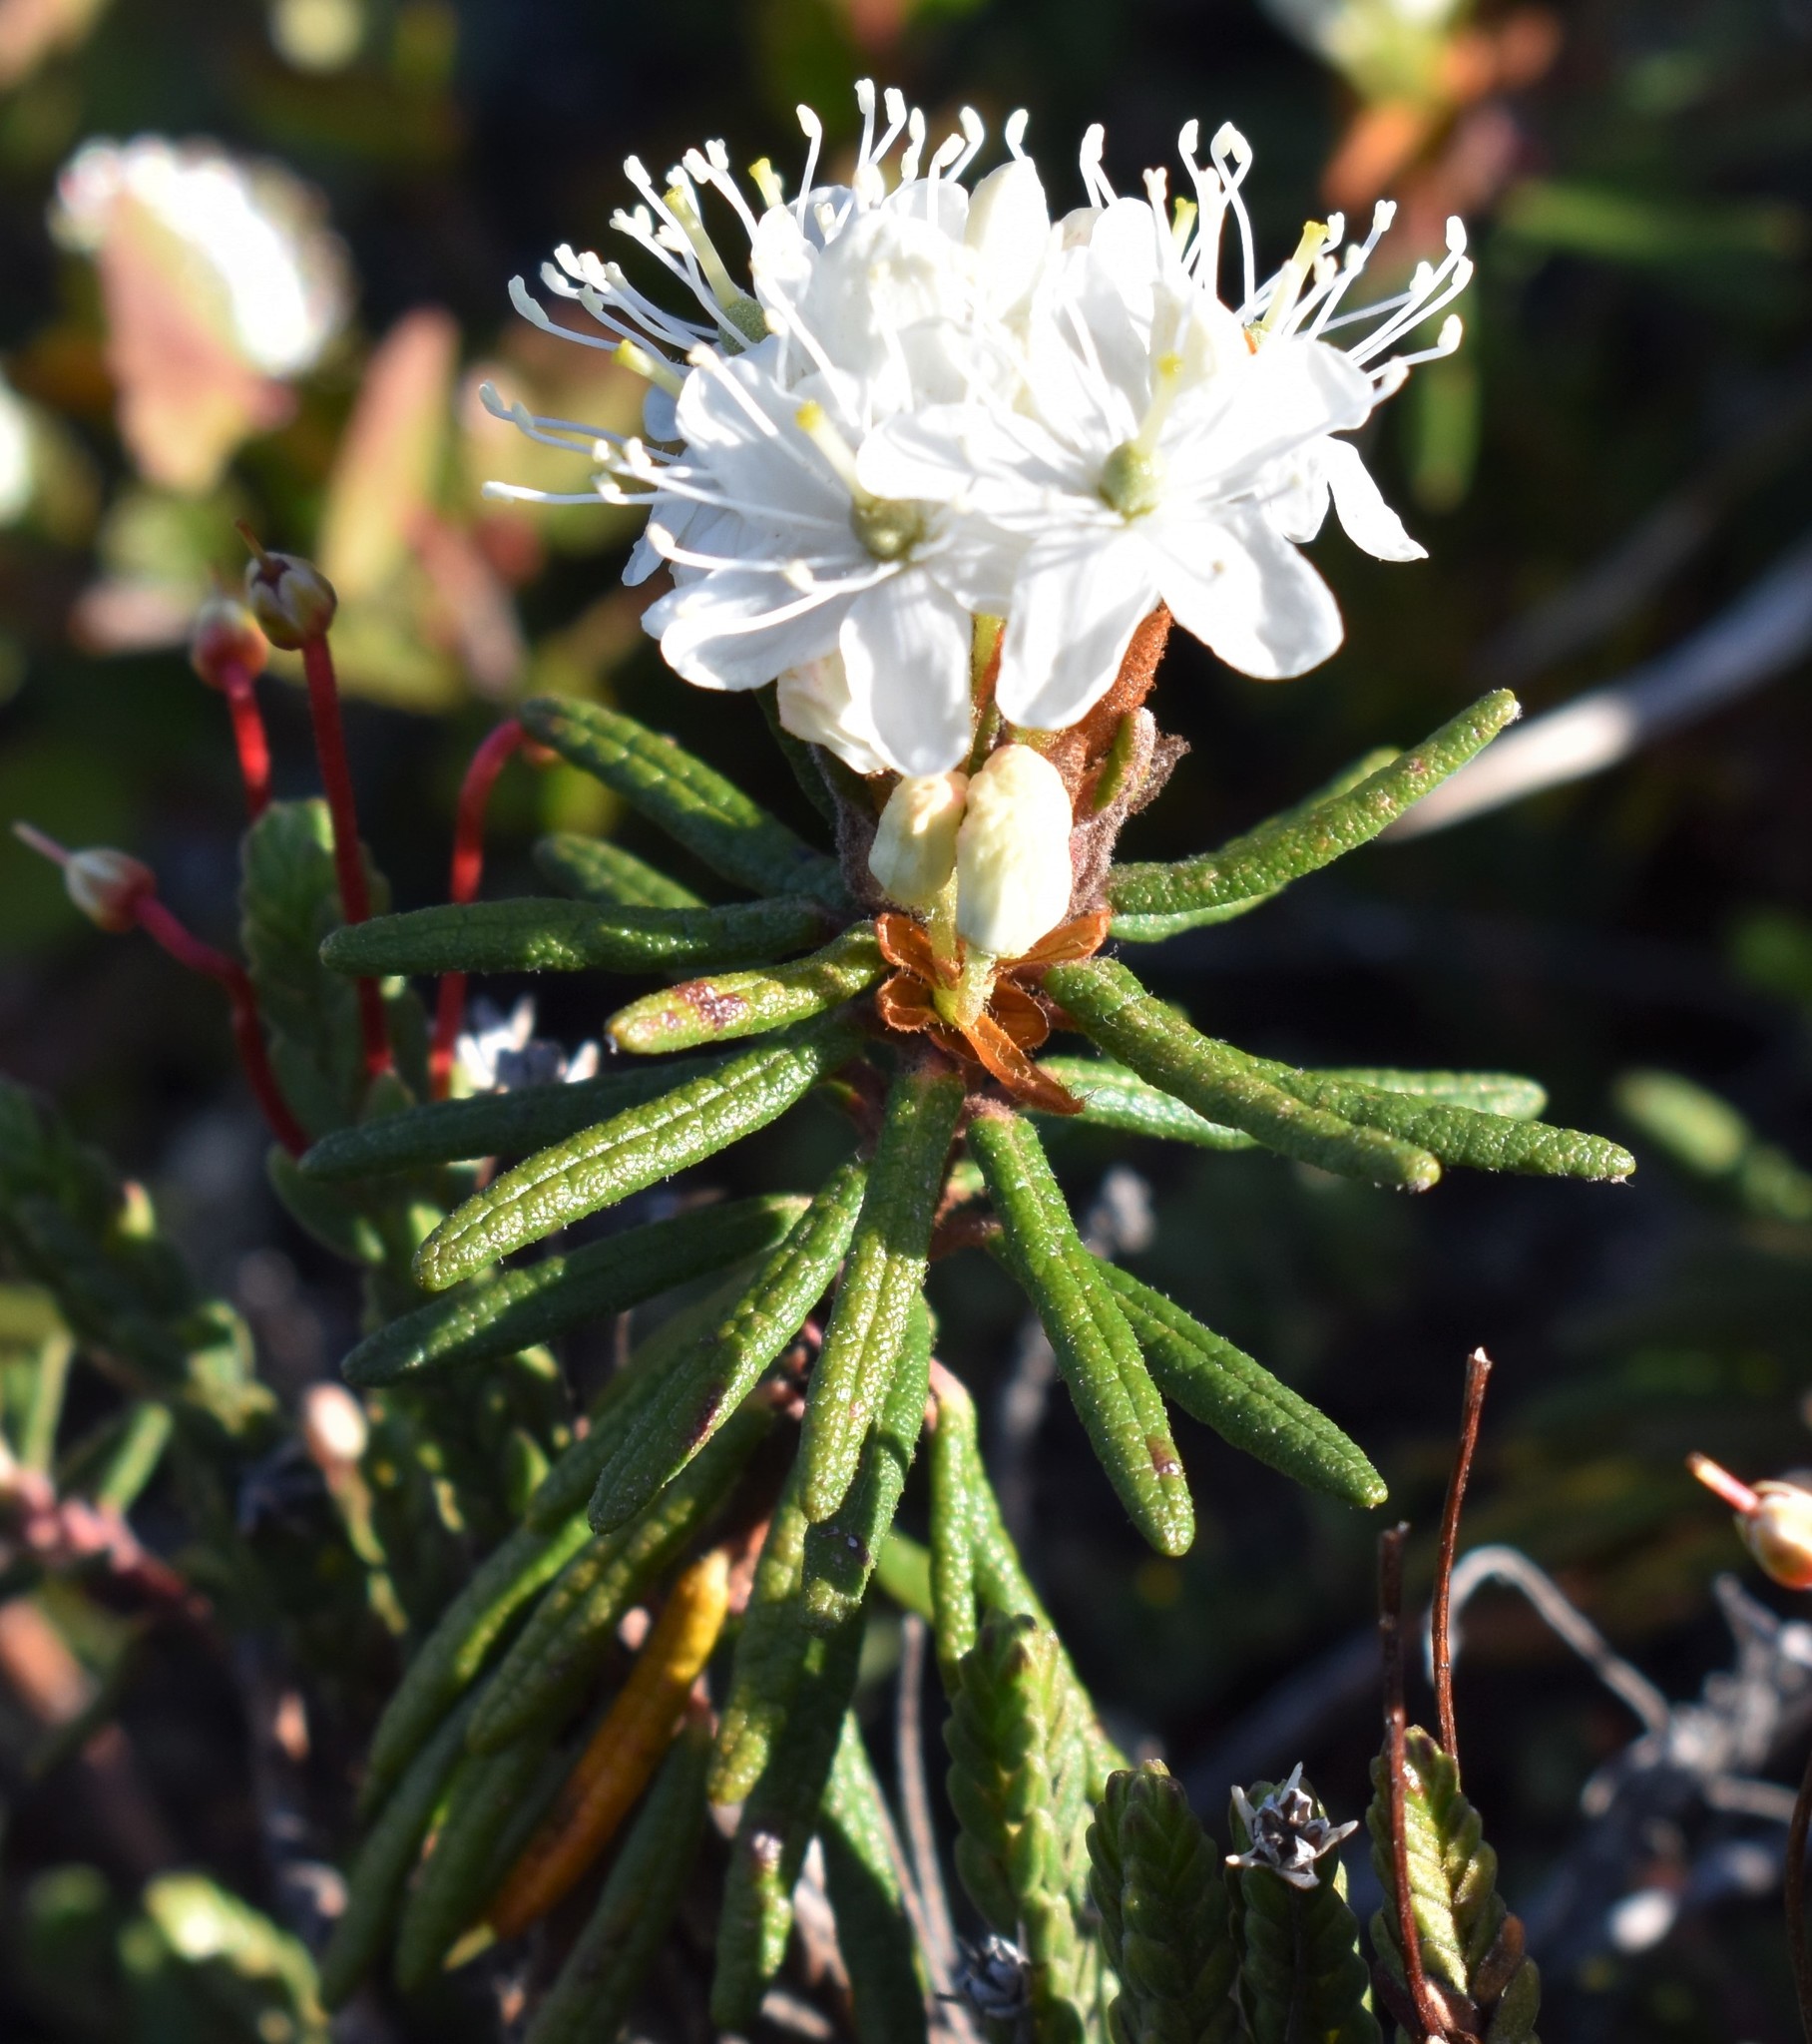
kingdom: Plantae
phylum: Tracheophyta
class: Magnoliopsida
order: Ericales
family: Ericaceae
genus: Rhododendron
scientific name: Rhododendron tomentosum
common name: Marsh labrador tea
